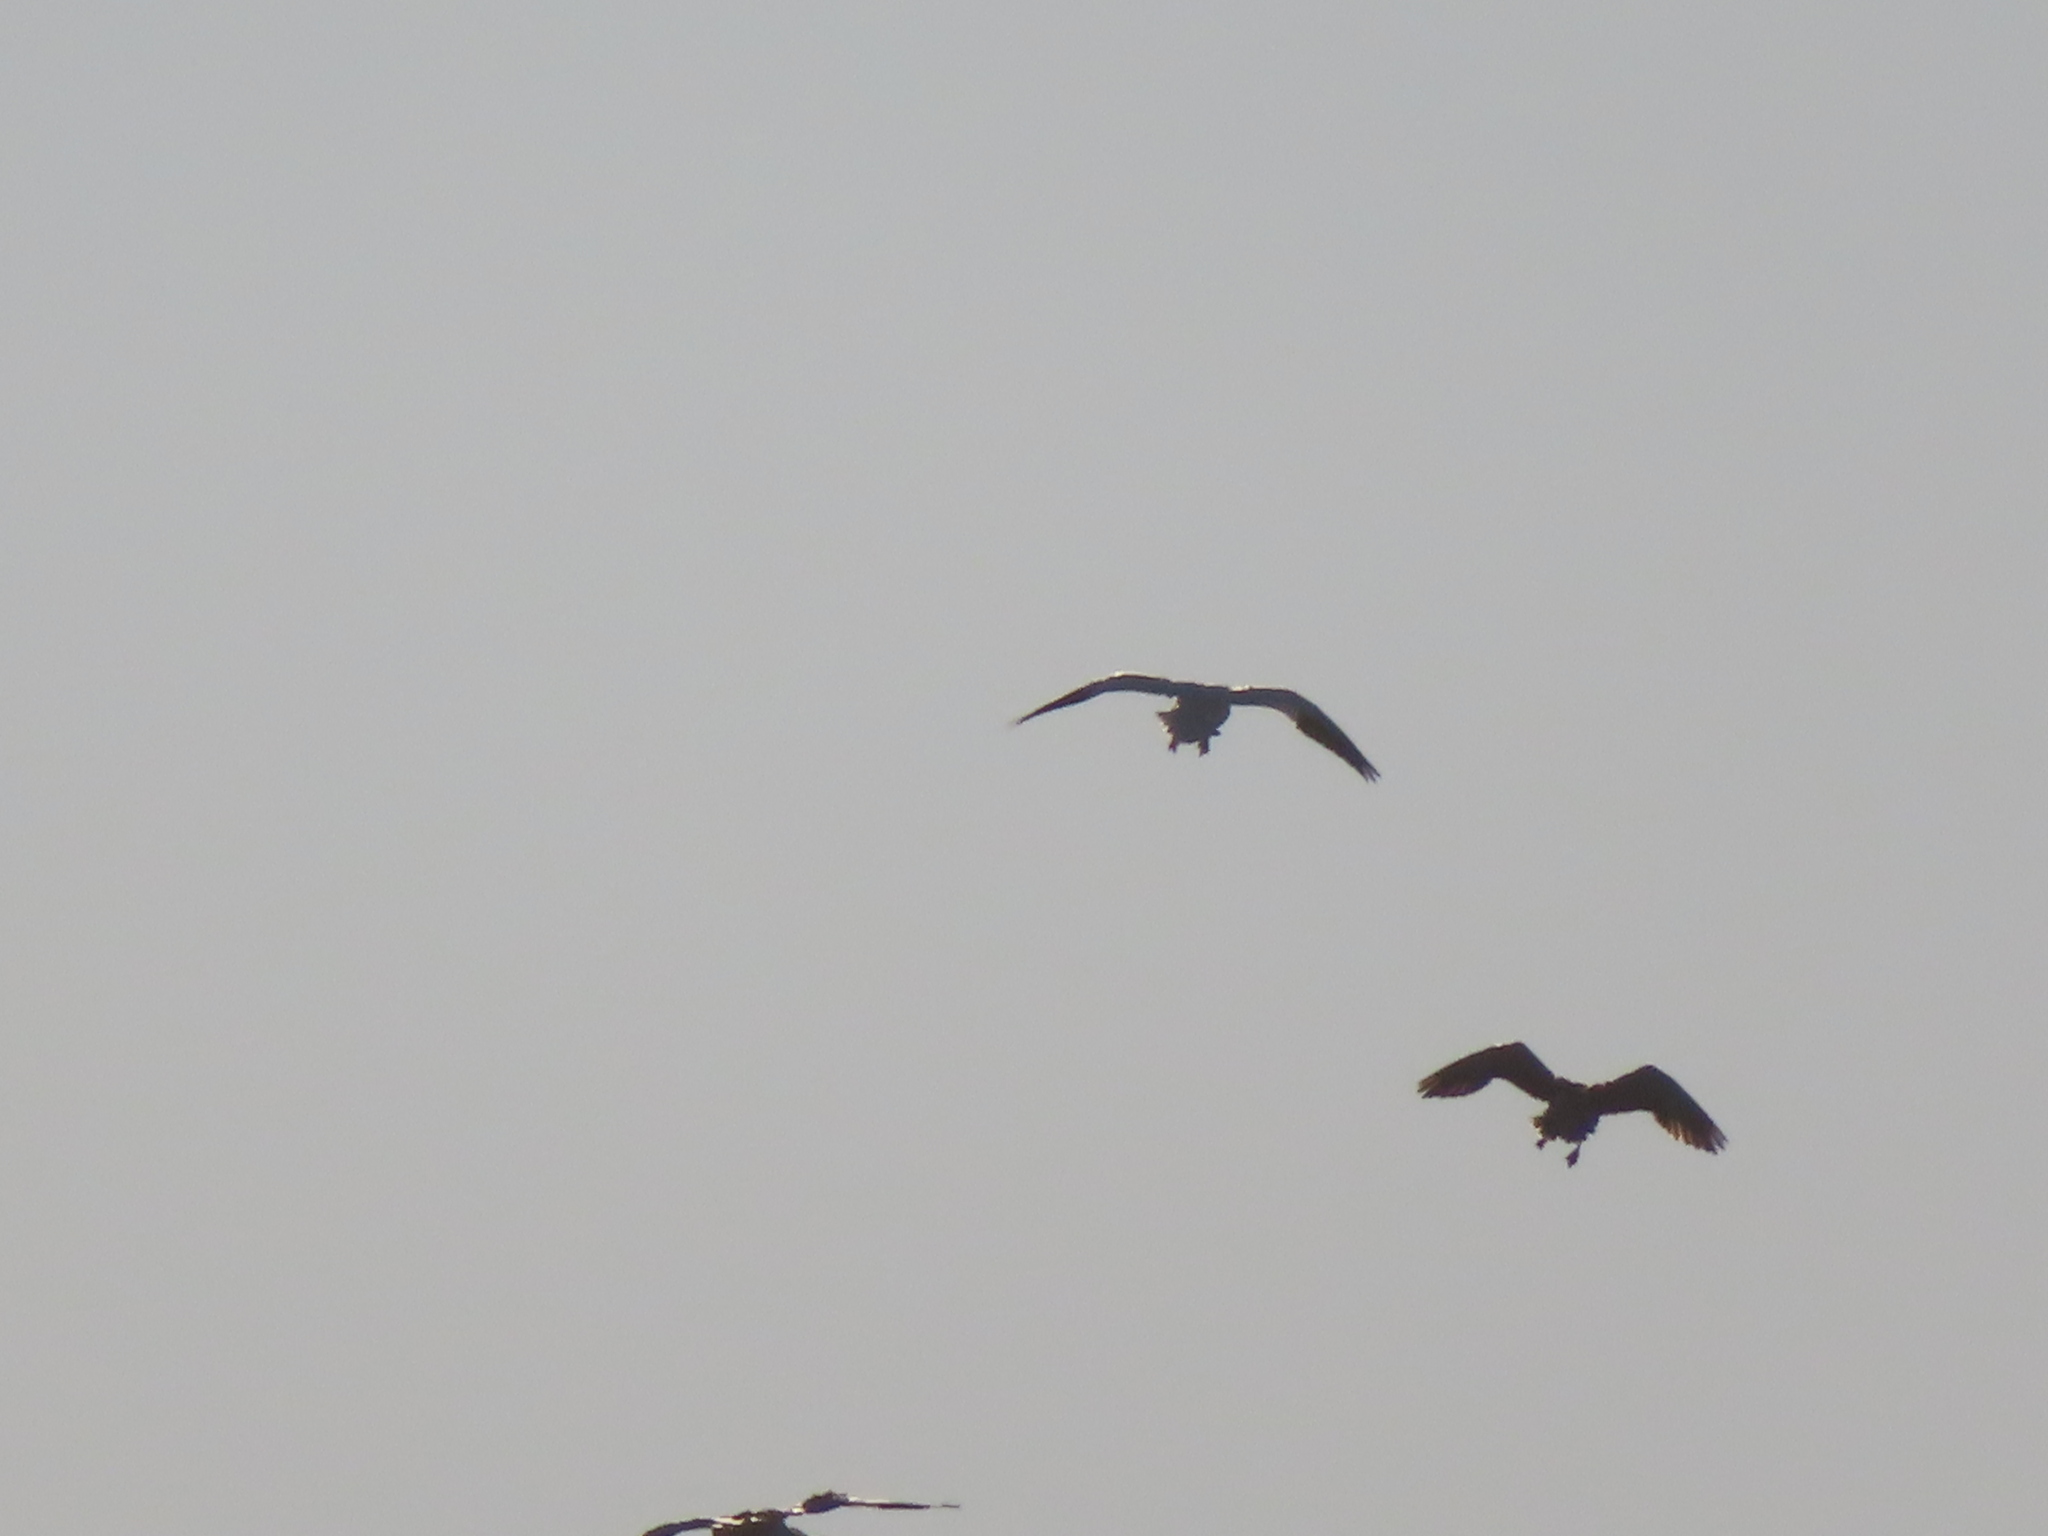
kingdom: Animalia
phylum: Chordata
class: Aves
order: Anseriformes
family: Anatidae
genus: Anser
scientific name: Anser caerulescens
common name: Snow goose
